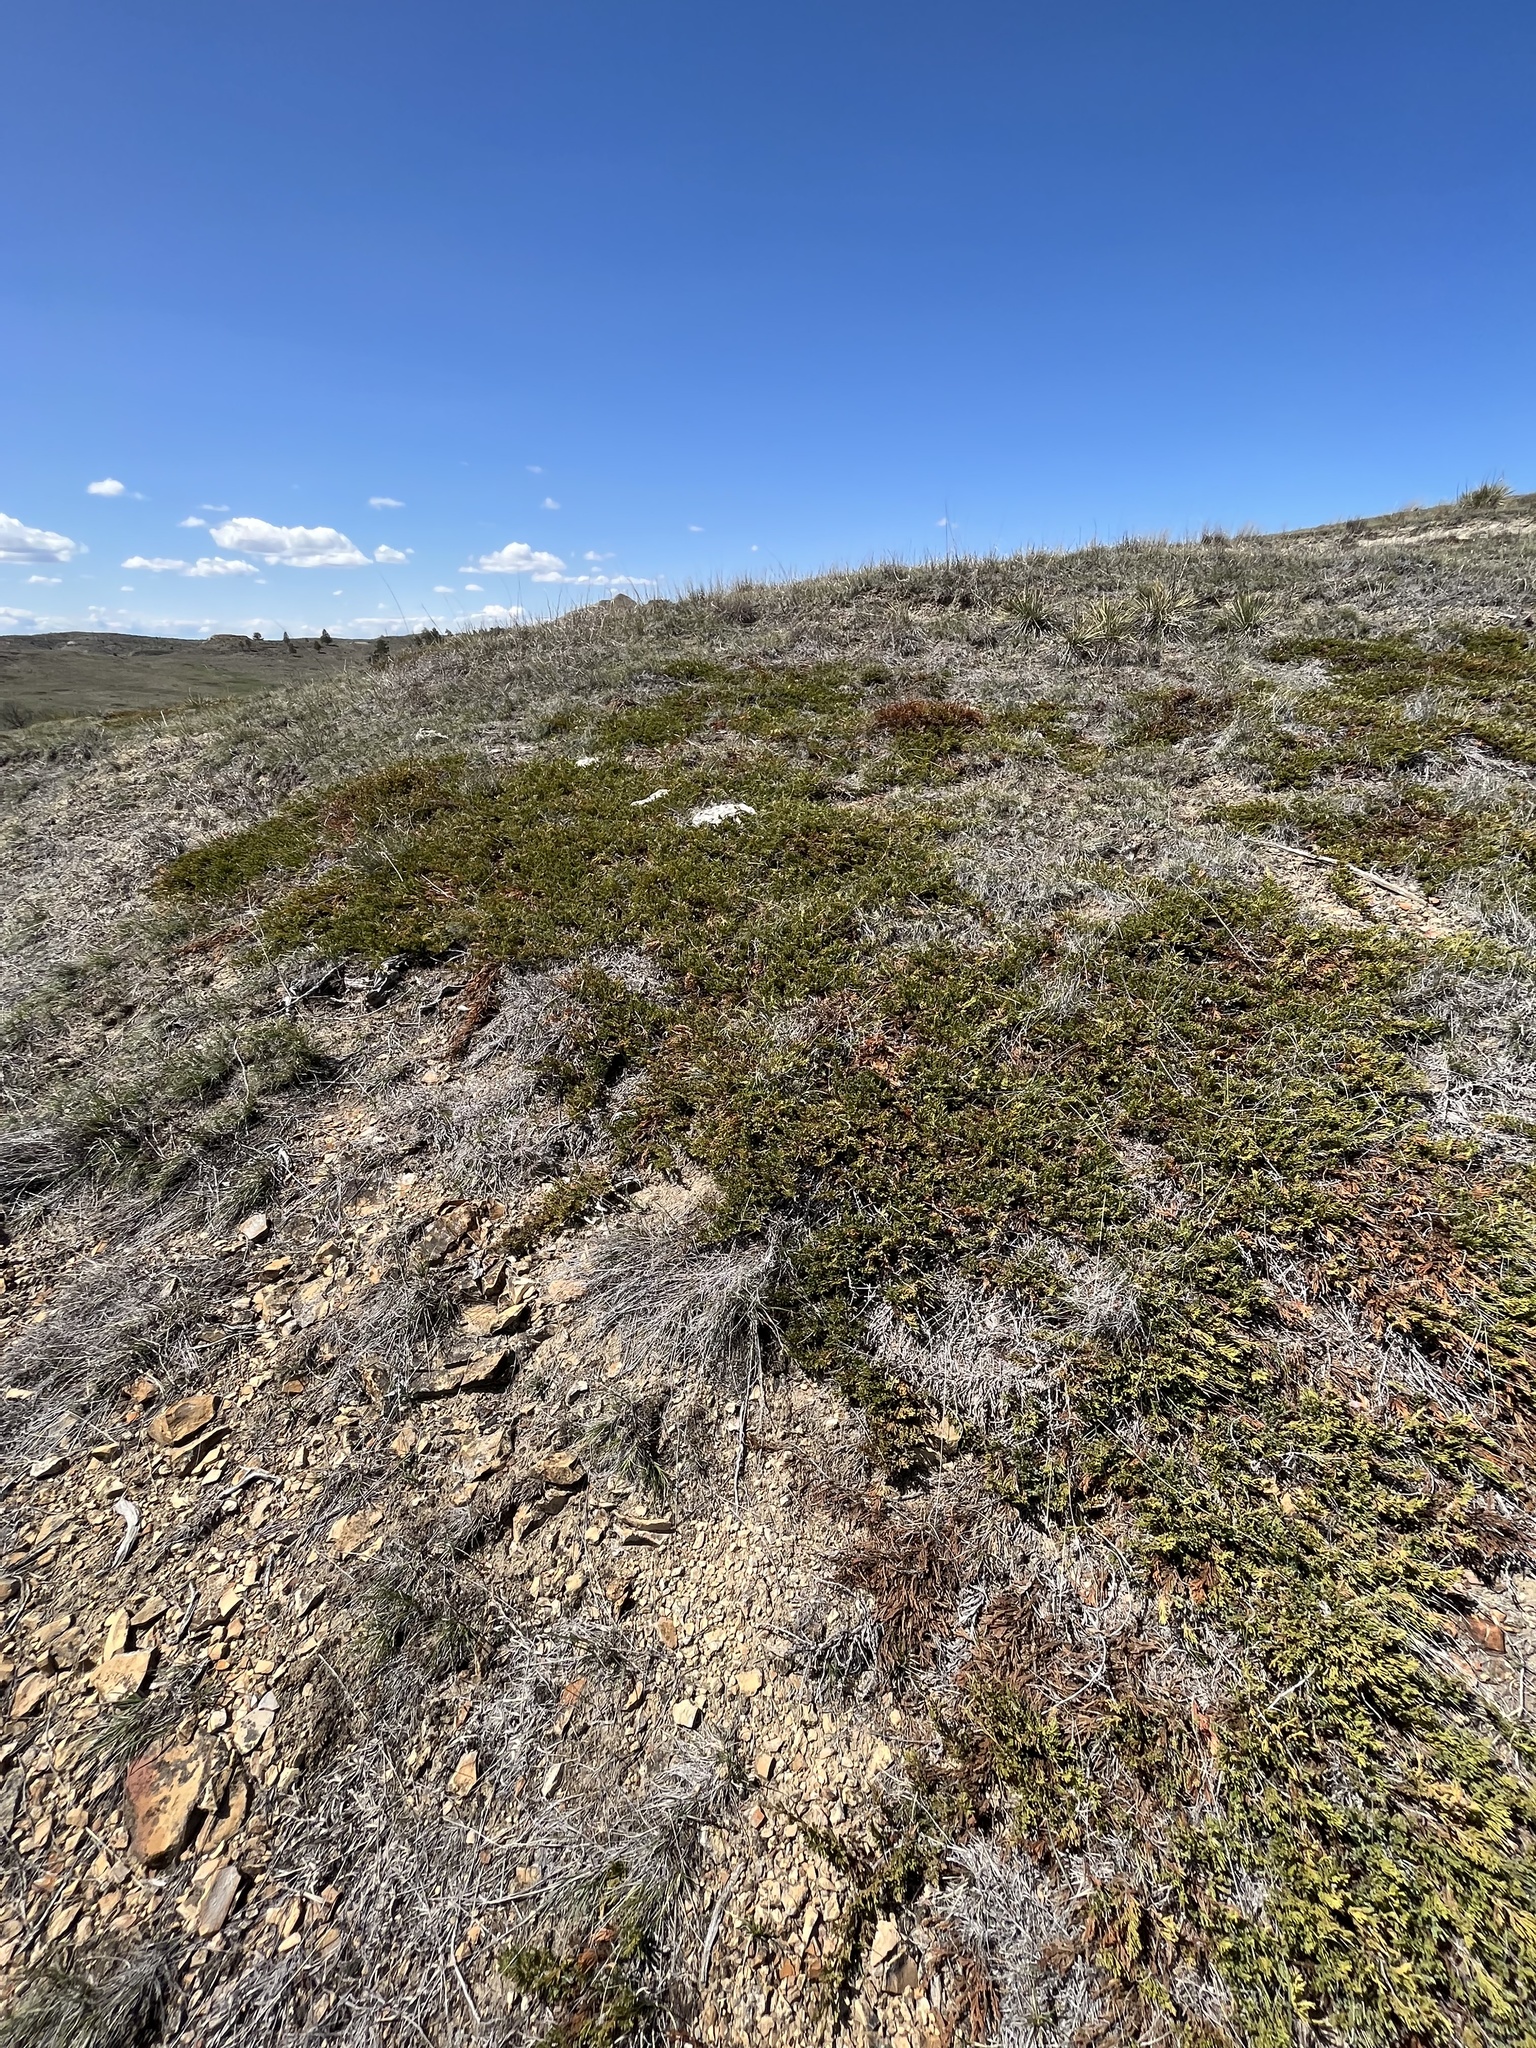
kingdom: Plantae
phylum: Tracheophyta
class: Pinopsida
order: Pinales
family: Cupressaceae
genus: Juniperus
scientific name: Juniperus horizontalis
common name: Creeping juniper
